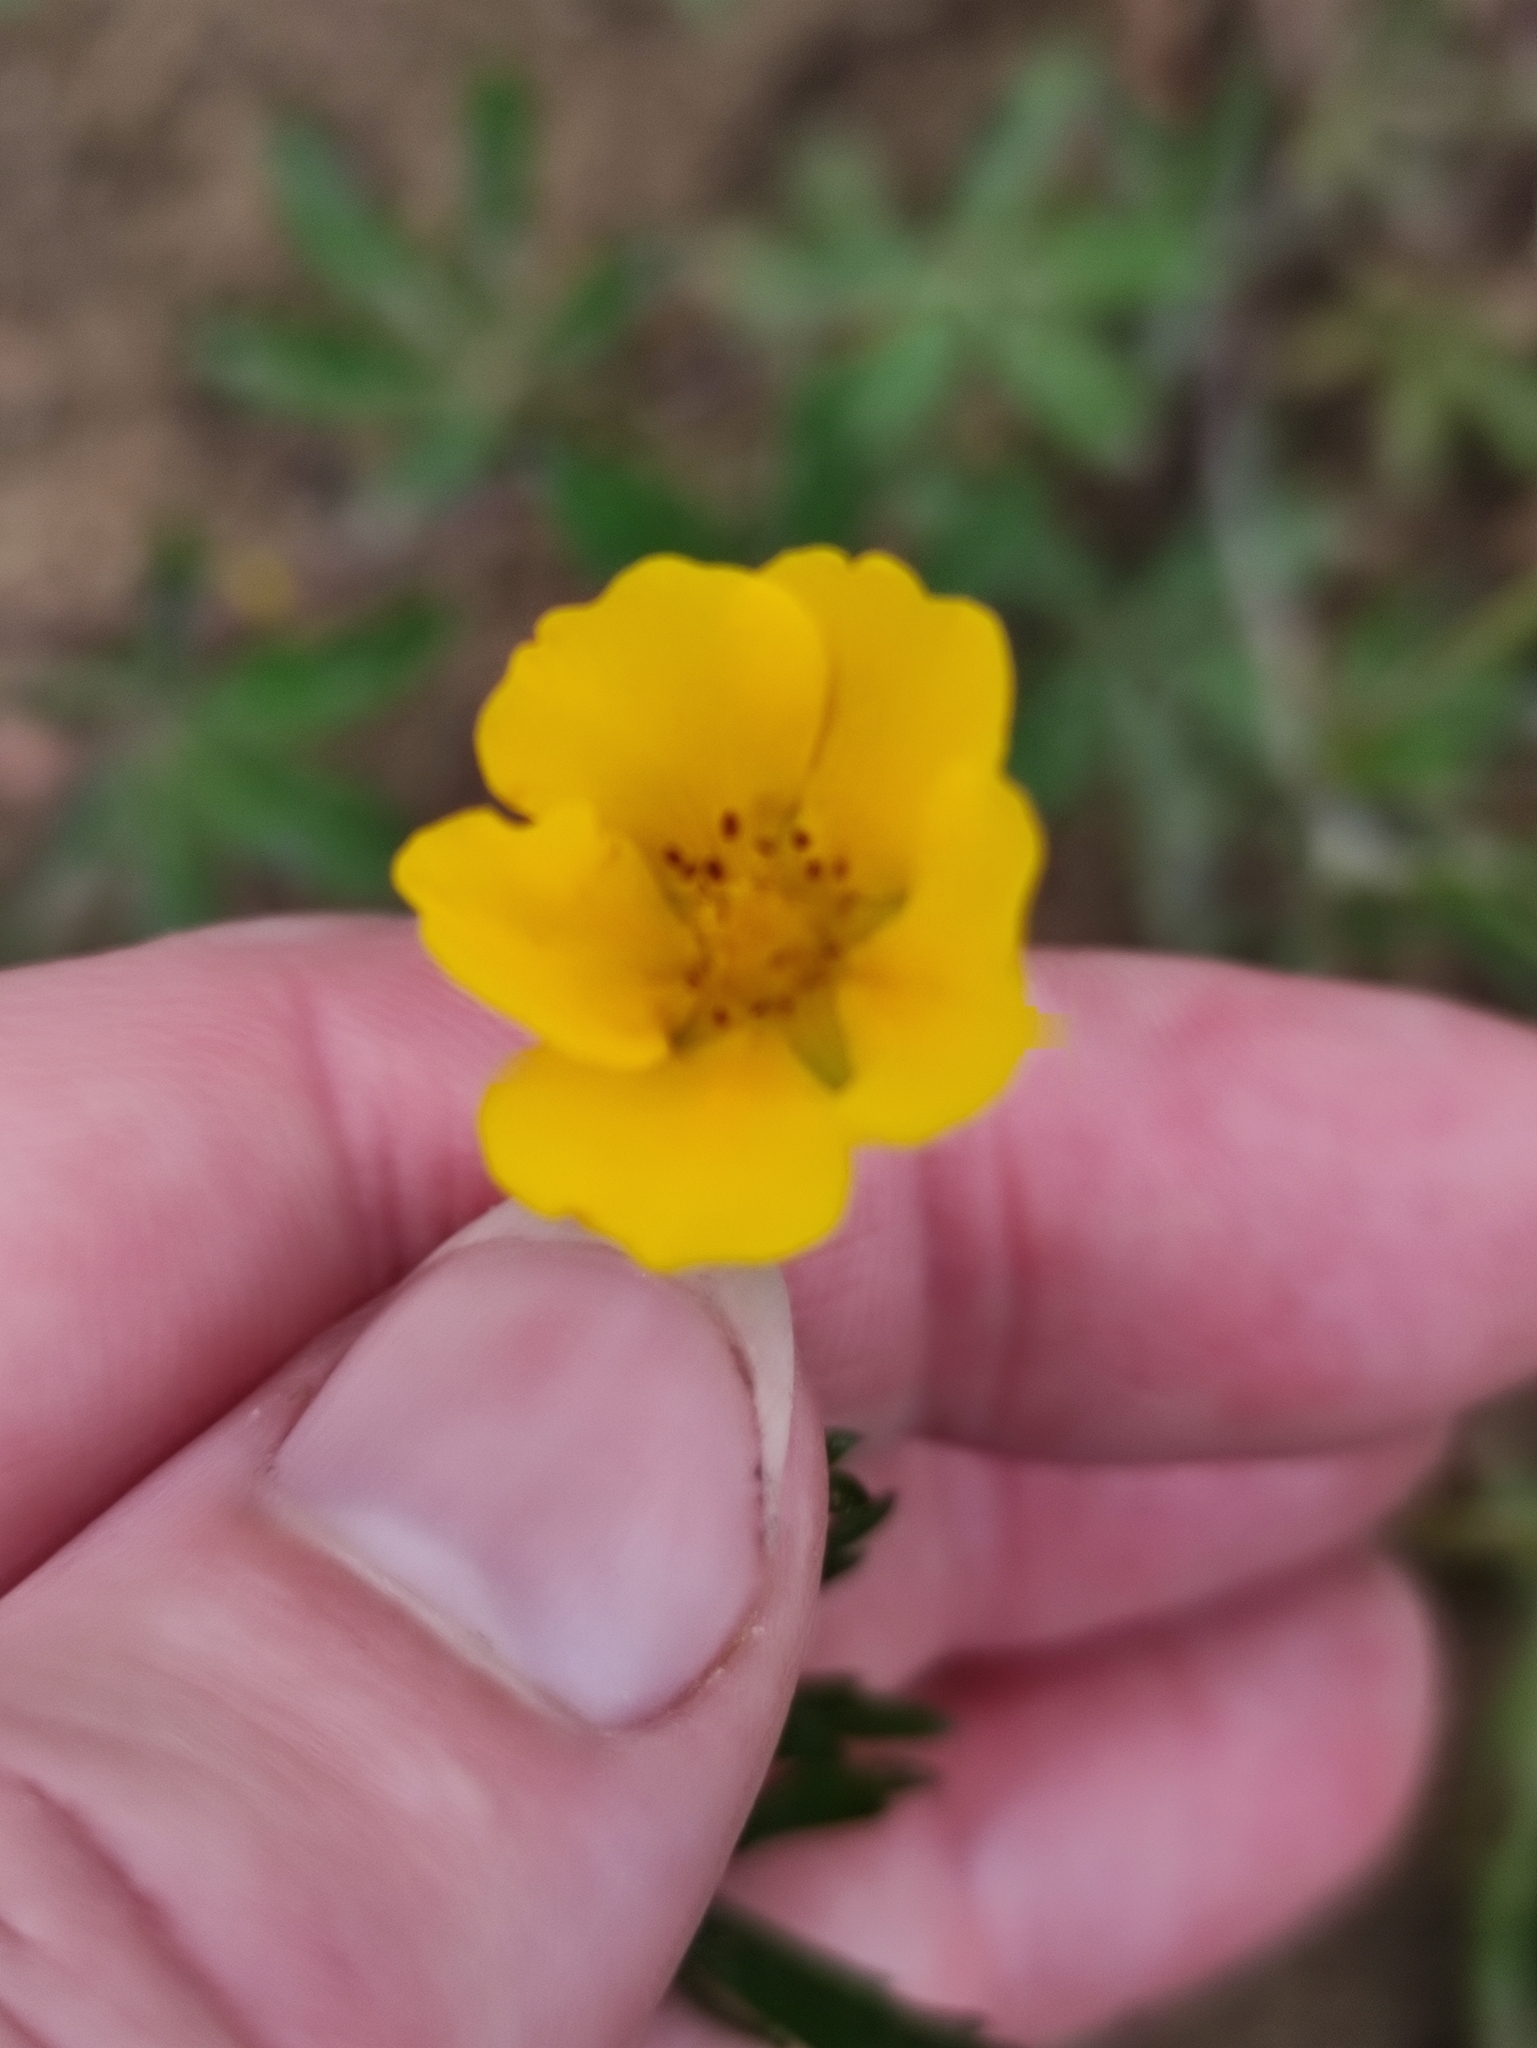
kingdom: Plantae
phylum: Tracheophyta
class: Magnoliopsida
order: Rosales
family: Rosaceae
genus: Potentilla
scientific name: Potentilla thuringiaca
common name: European cinquefoil
